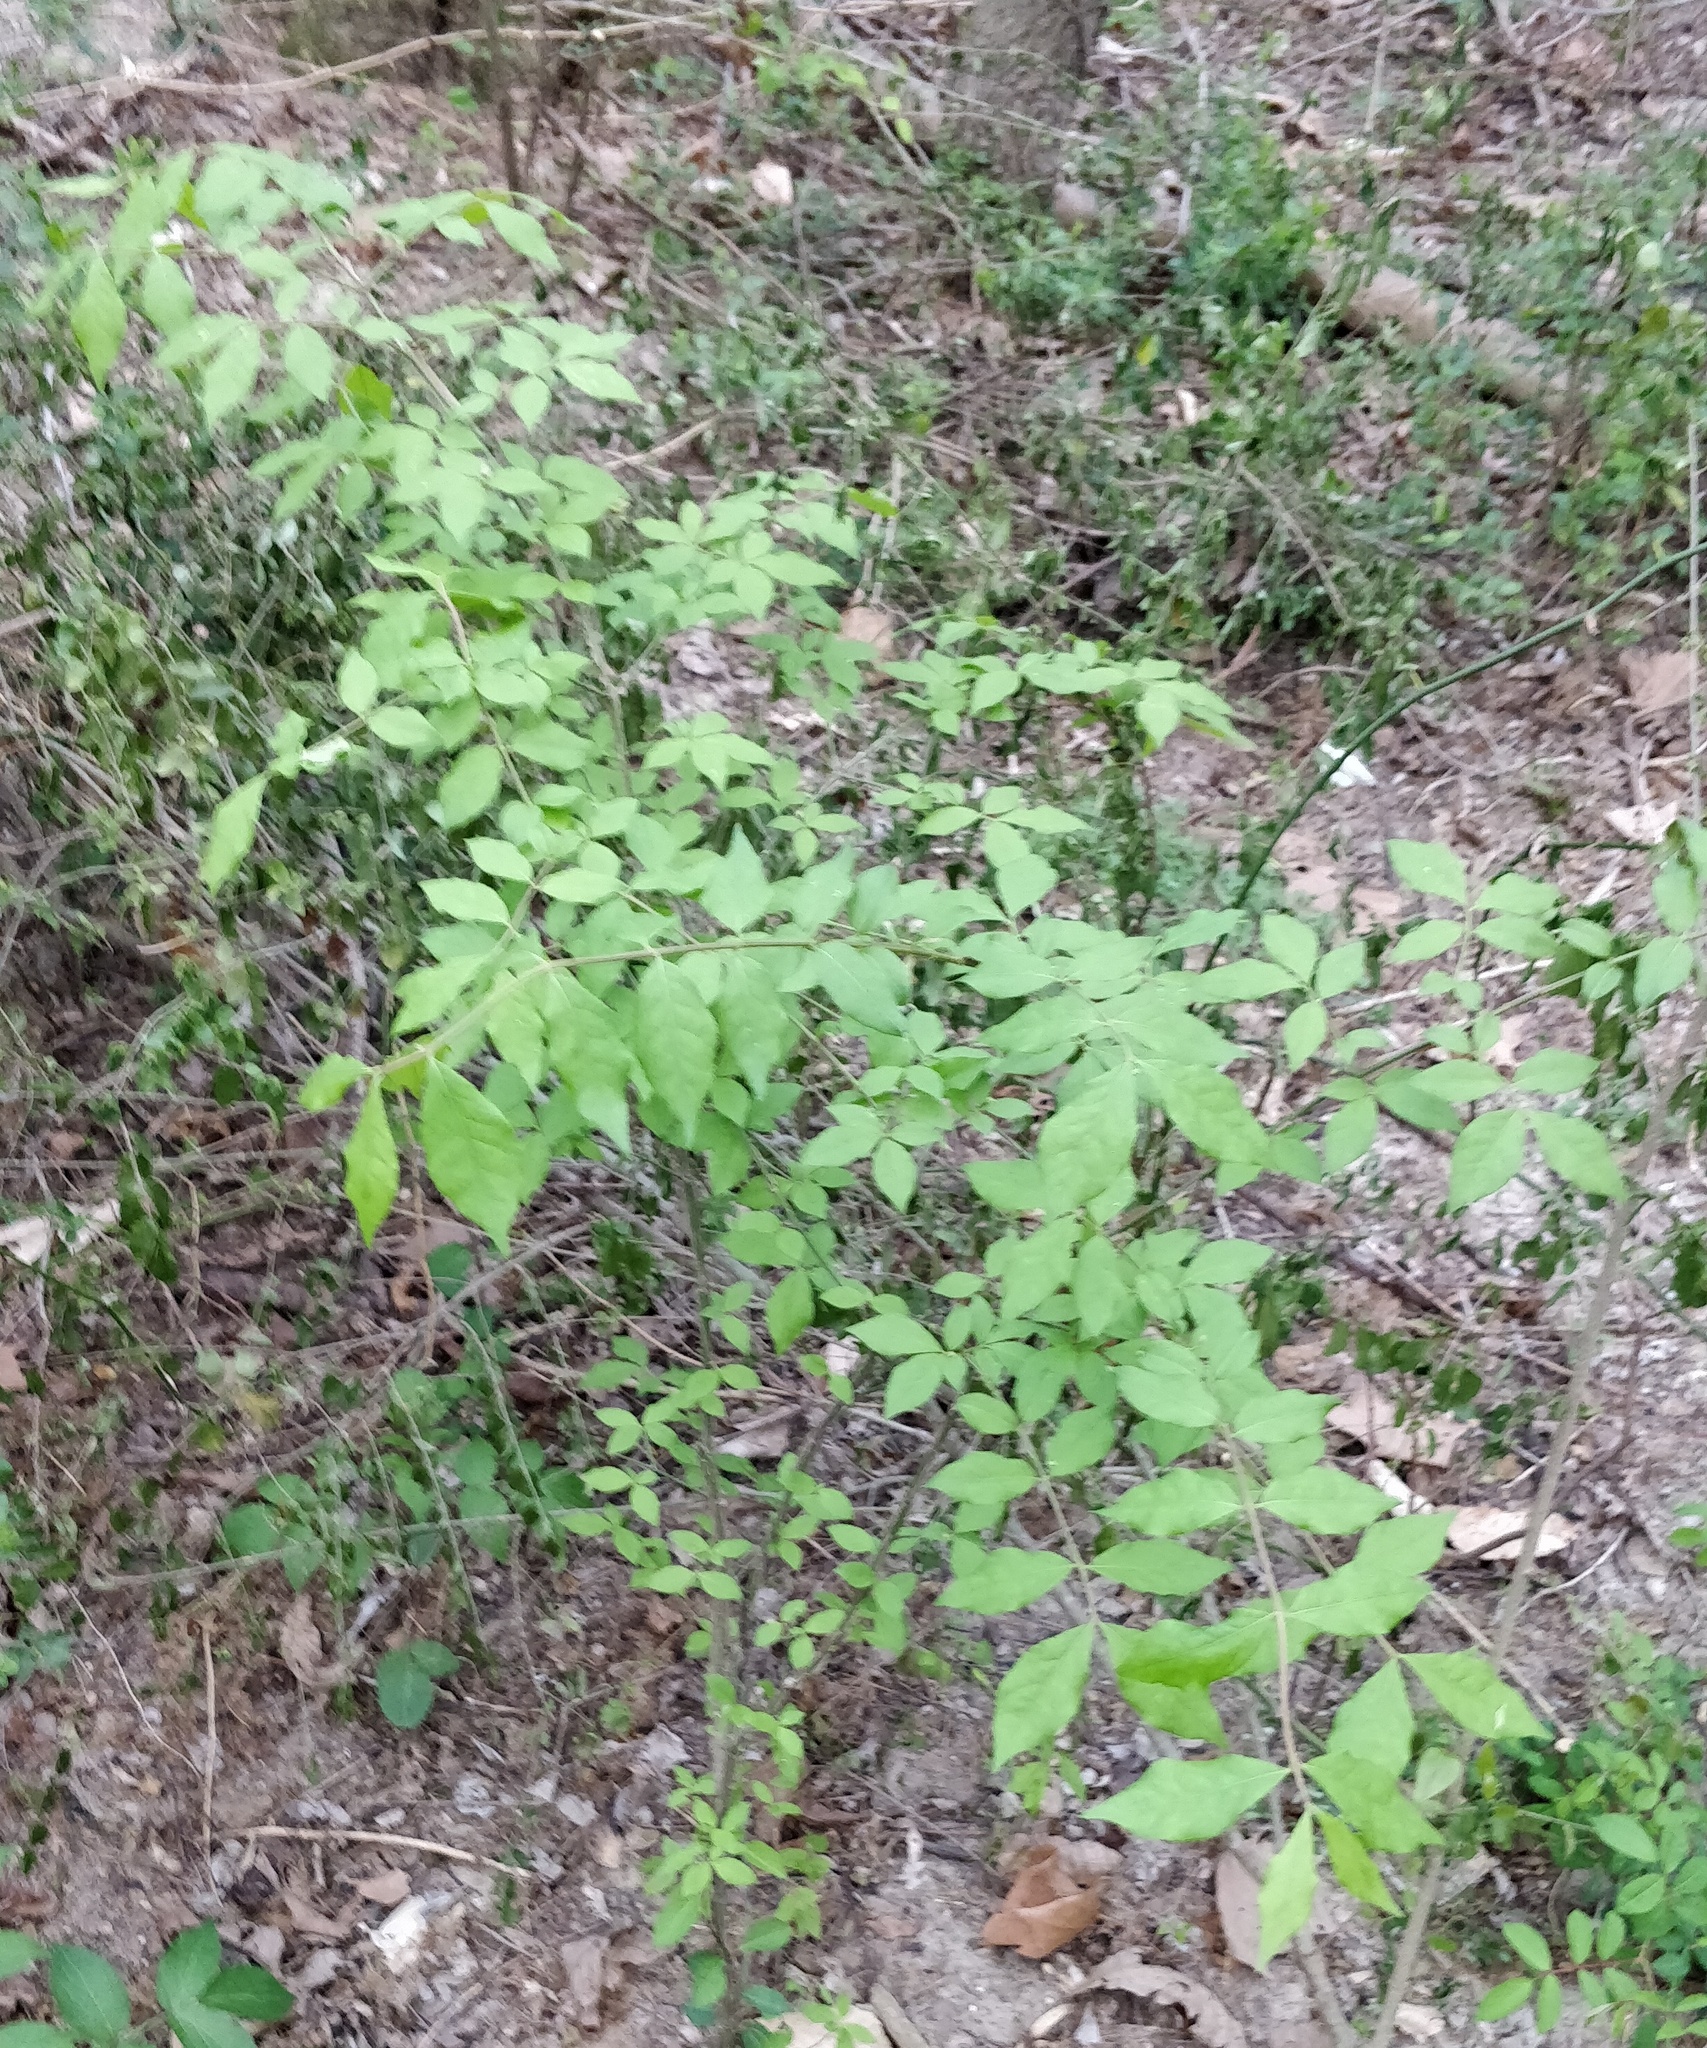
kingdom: Plantae
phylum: Tracheophyta
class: Magnoliopsida
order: Celastrales
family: Celastraceae
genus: Euonymus
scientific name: Euonymus alatus
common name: Winged euonymus
